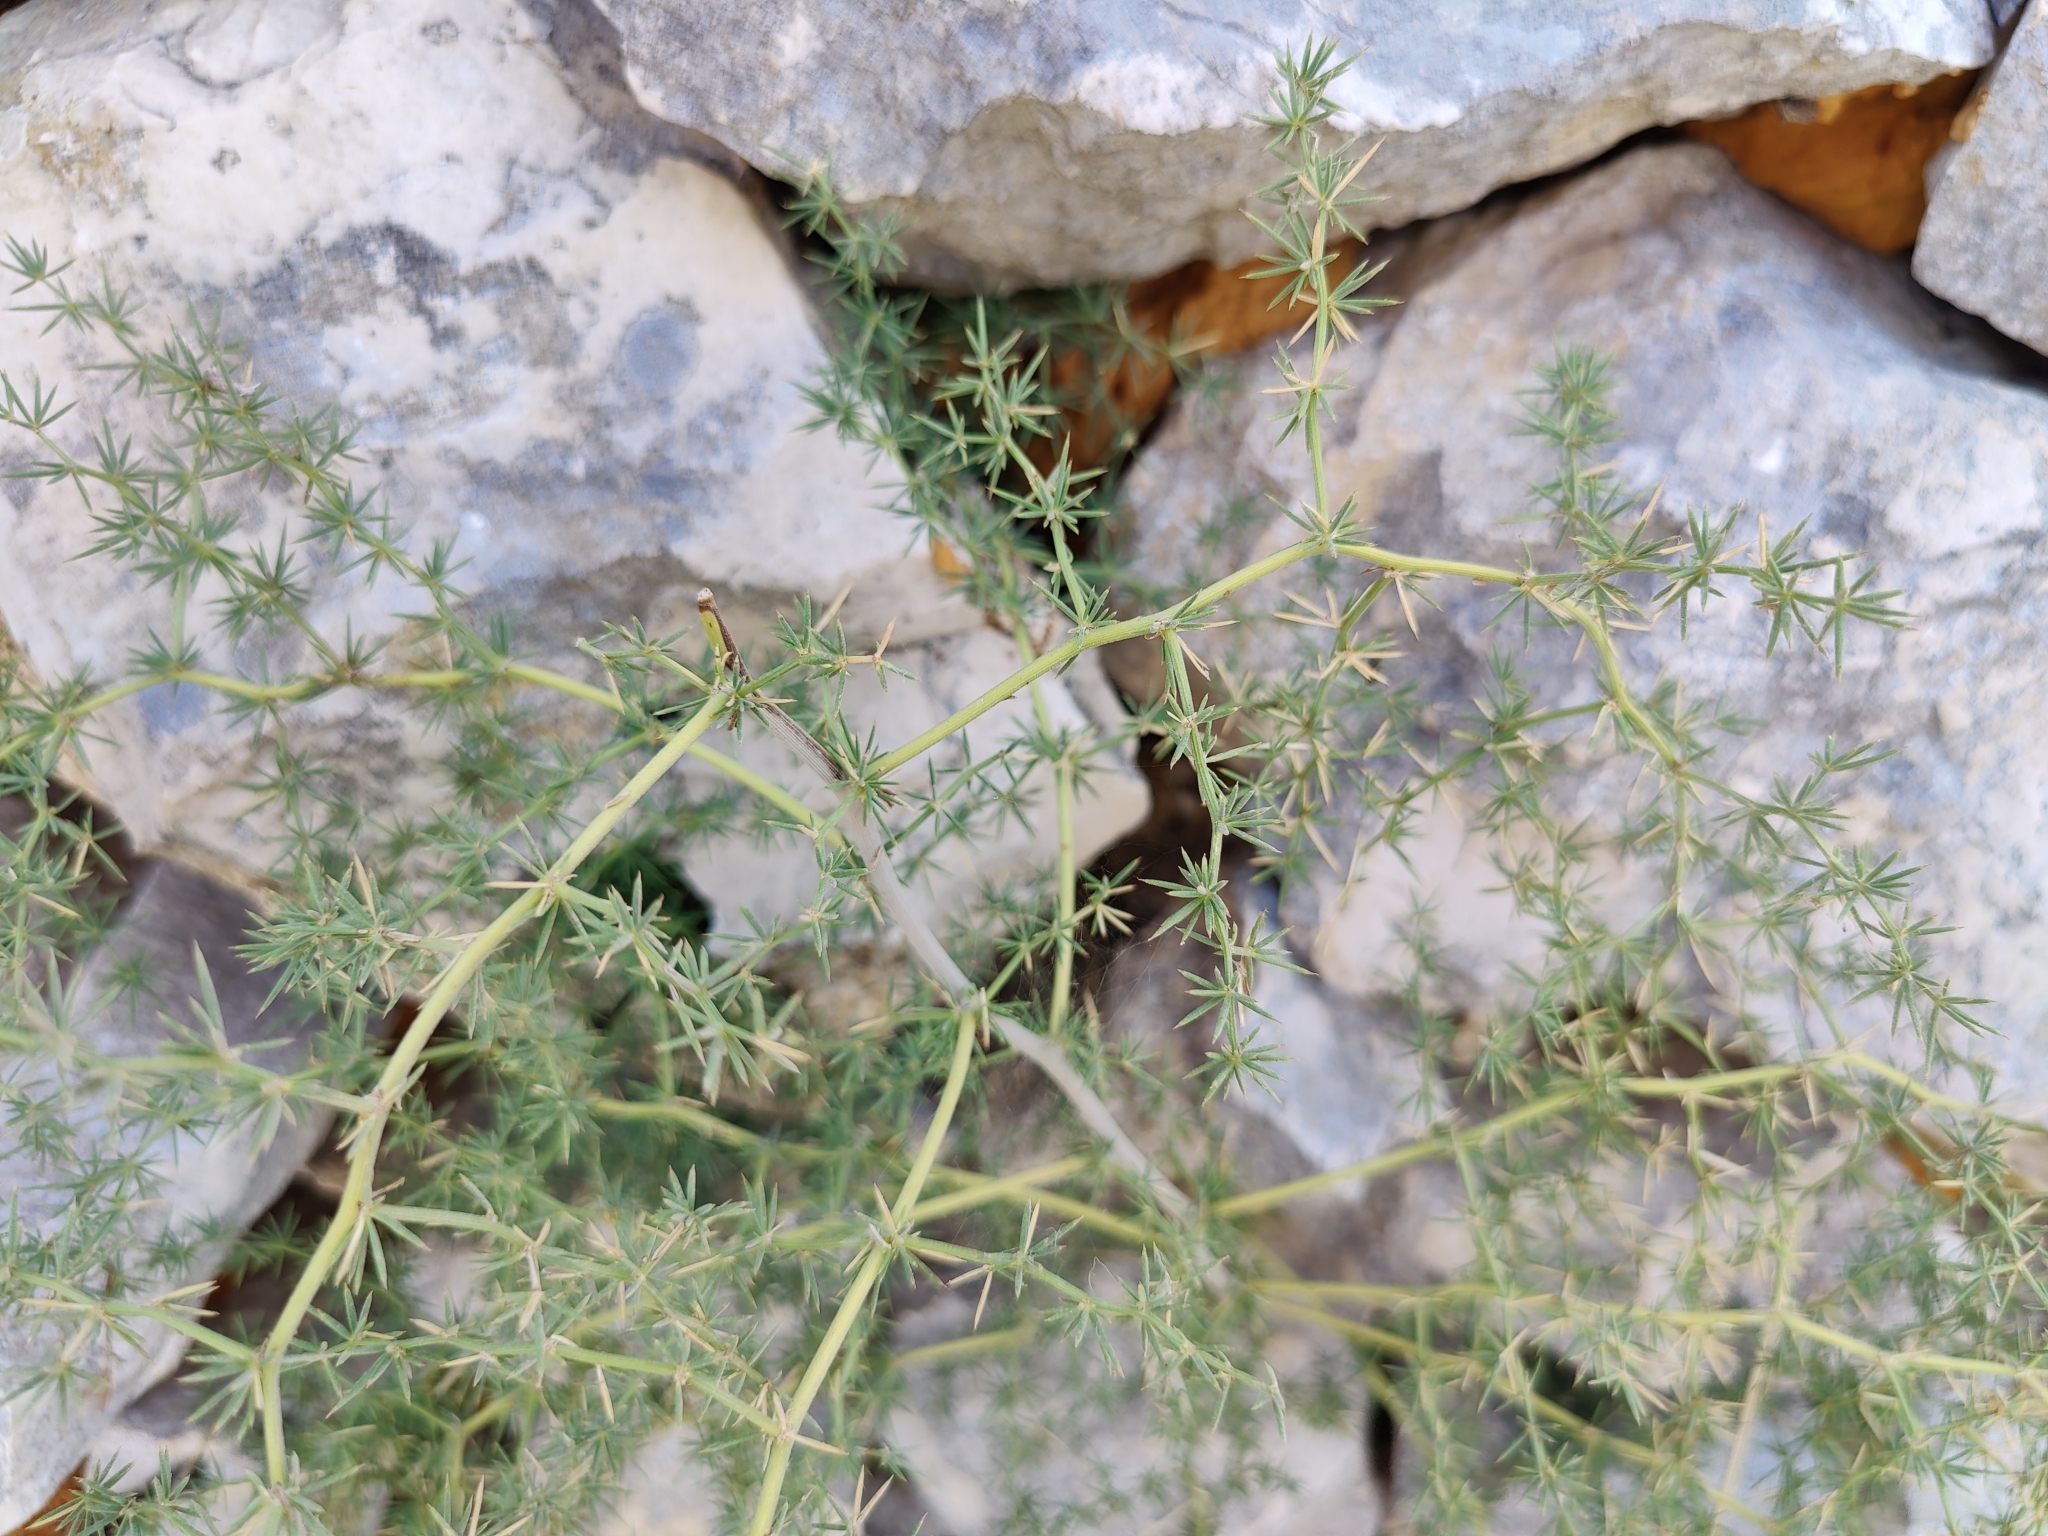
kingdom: Plantae
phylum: Tracheophyta
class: Liliopsida
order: Asparagales
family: Asparagaceae
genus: Asparagus
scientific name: Asparagus acutifolius
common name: Wild asparagus
